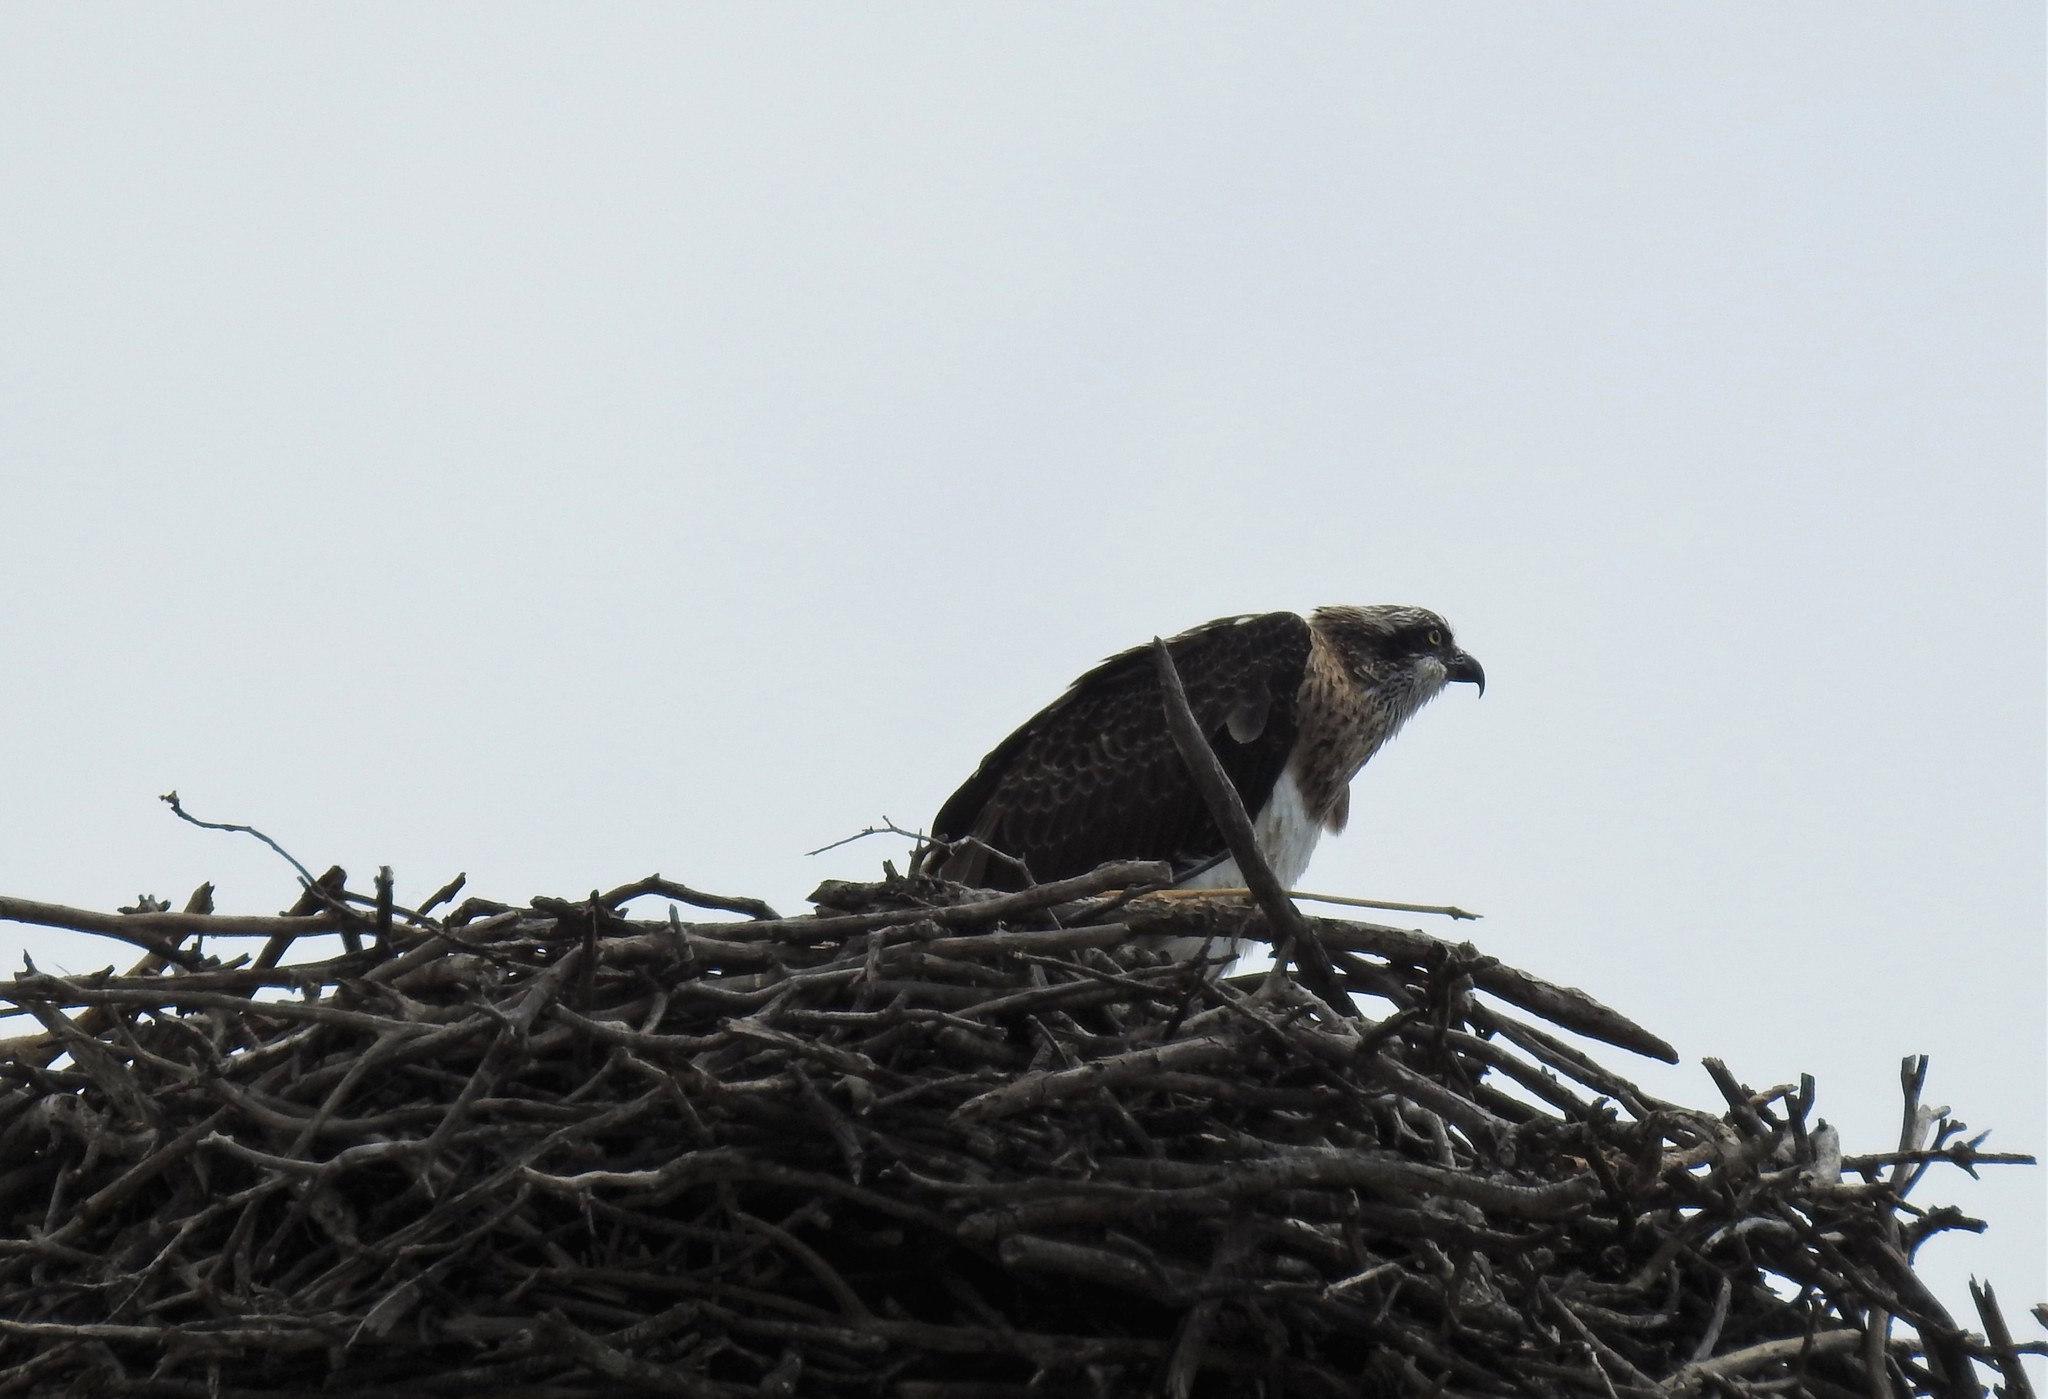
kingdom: Animalia
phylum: Chordata
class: Aves
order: Accipitriformes
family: Pandionidae
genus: Pandion
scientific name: Pandion haliaetus
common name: Osprey
